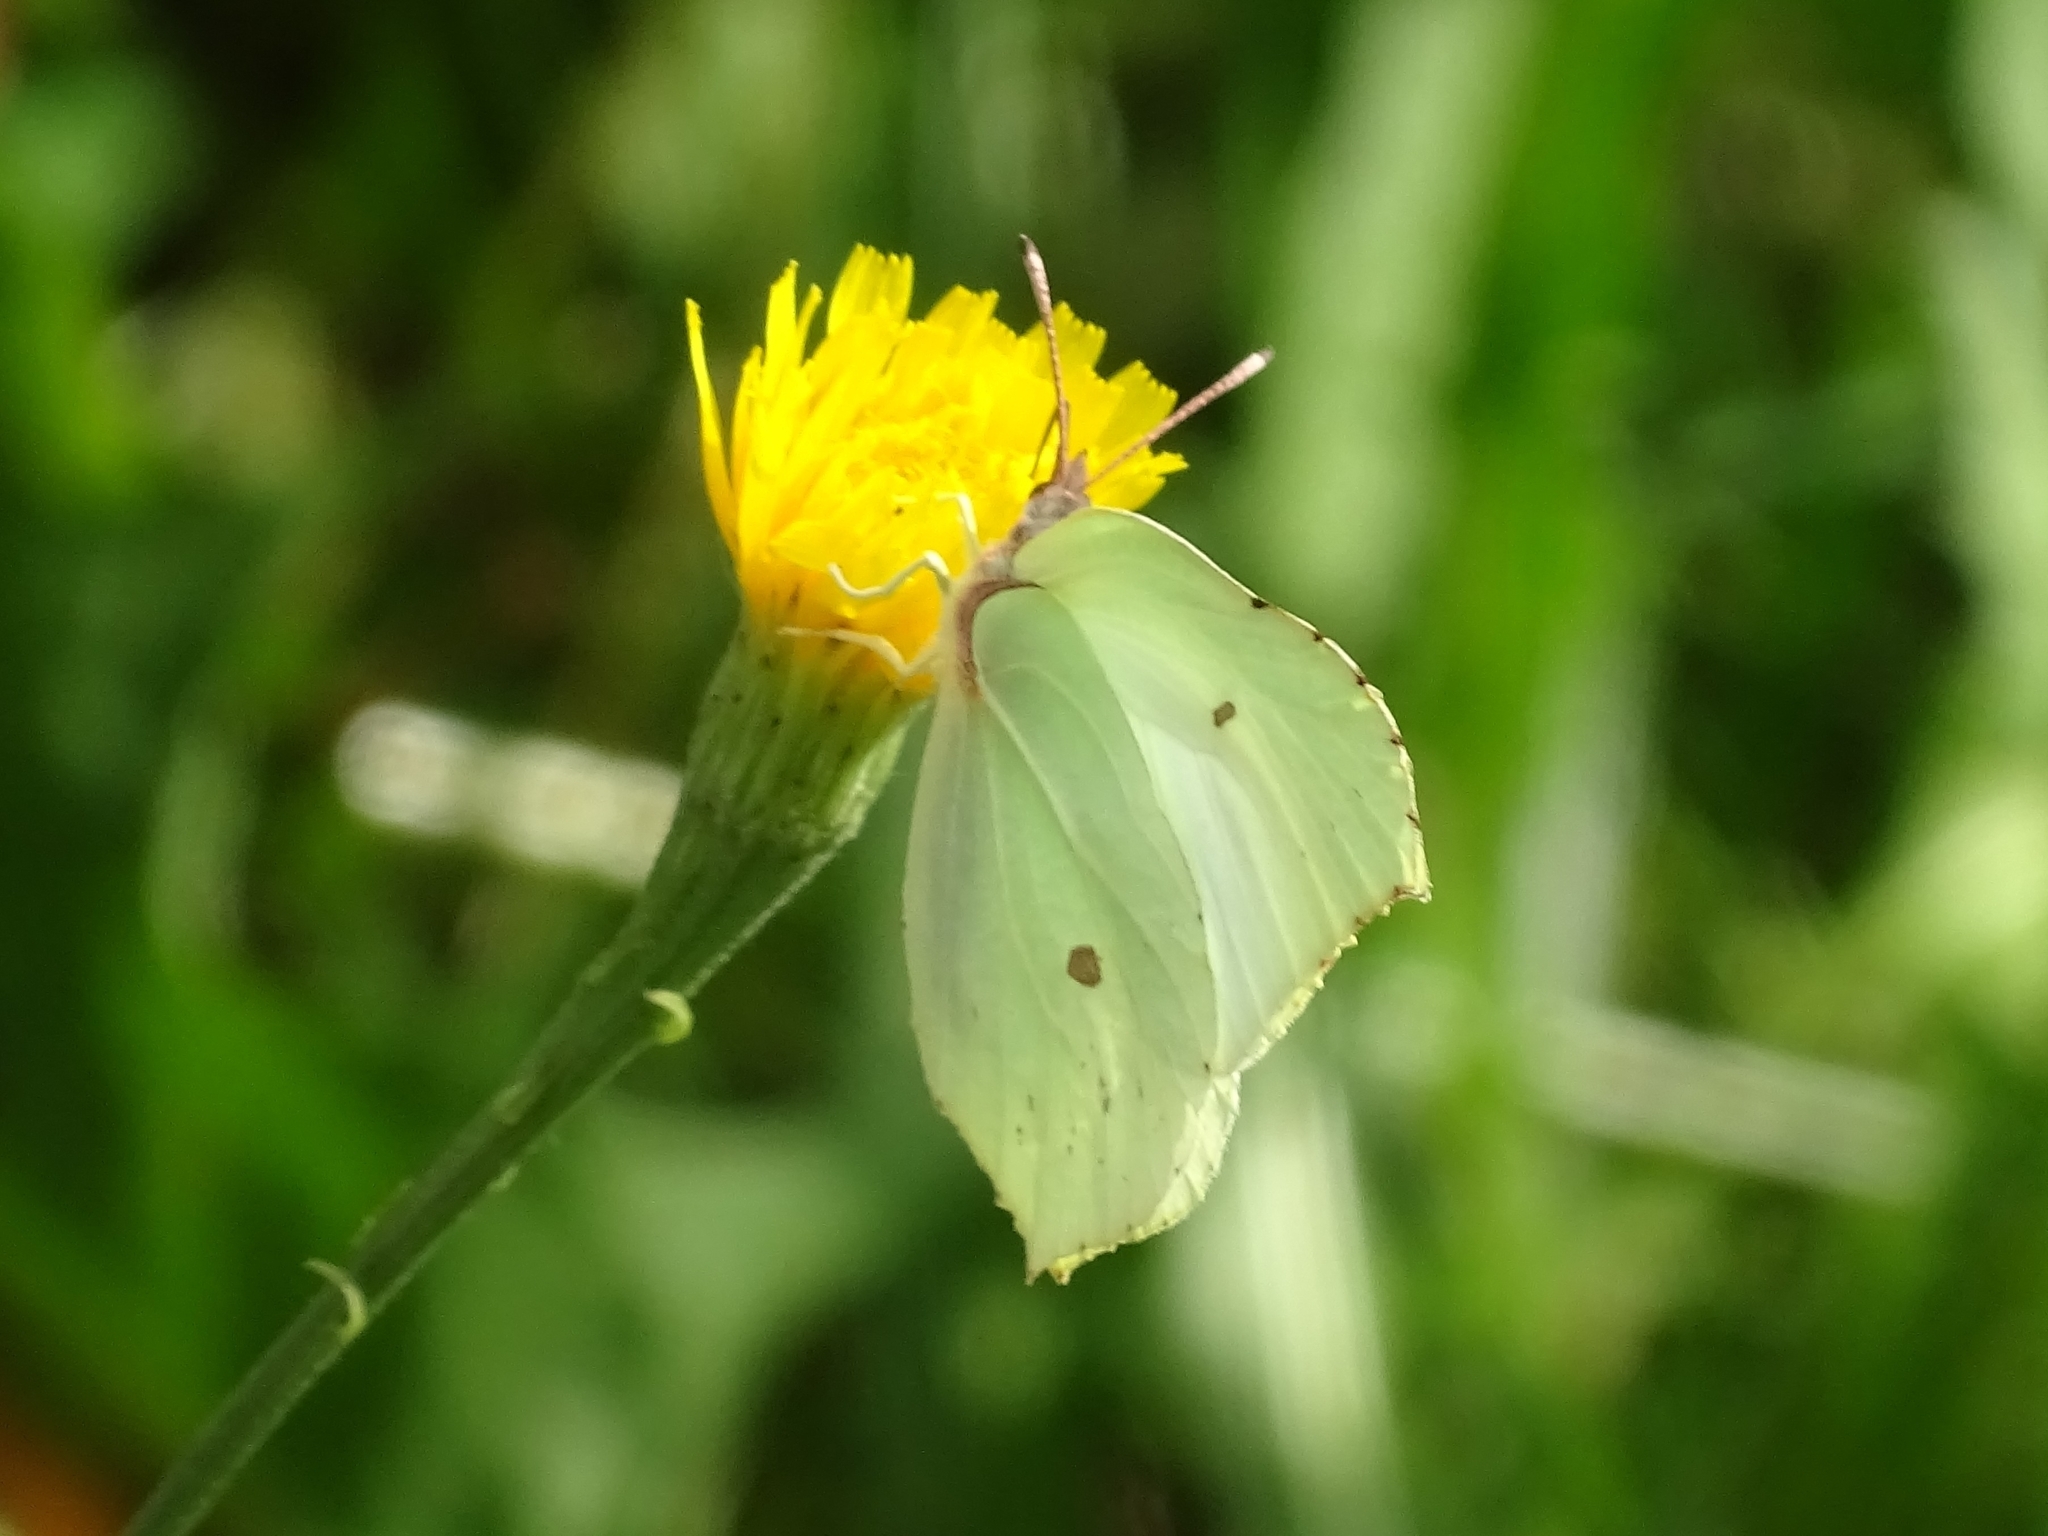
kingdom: Animalia
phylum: Arthropoda
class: Insecta
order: Lepidoptera
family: Pieridae
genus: Gonepteryx
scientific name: Gonepteryx rhamni
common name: Brimstone
